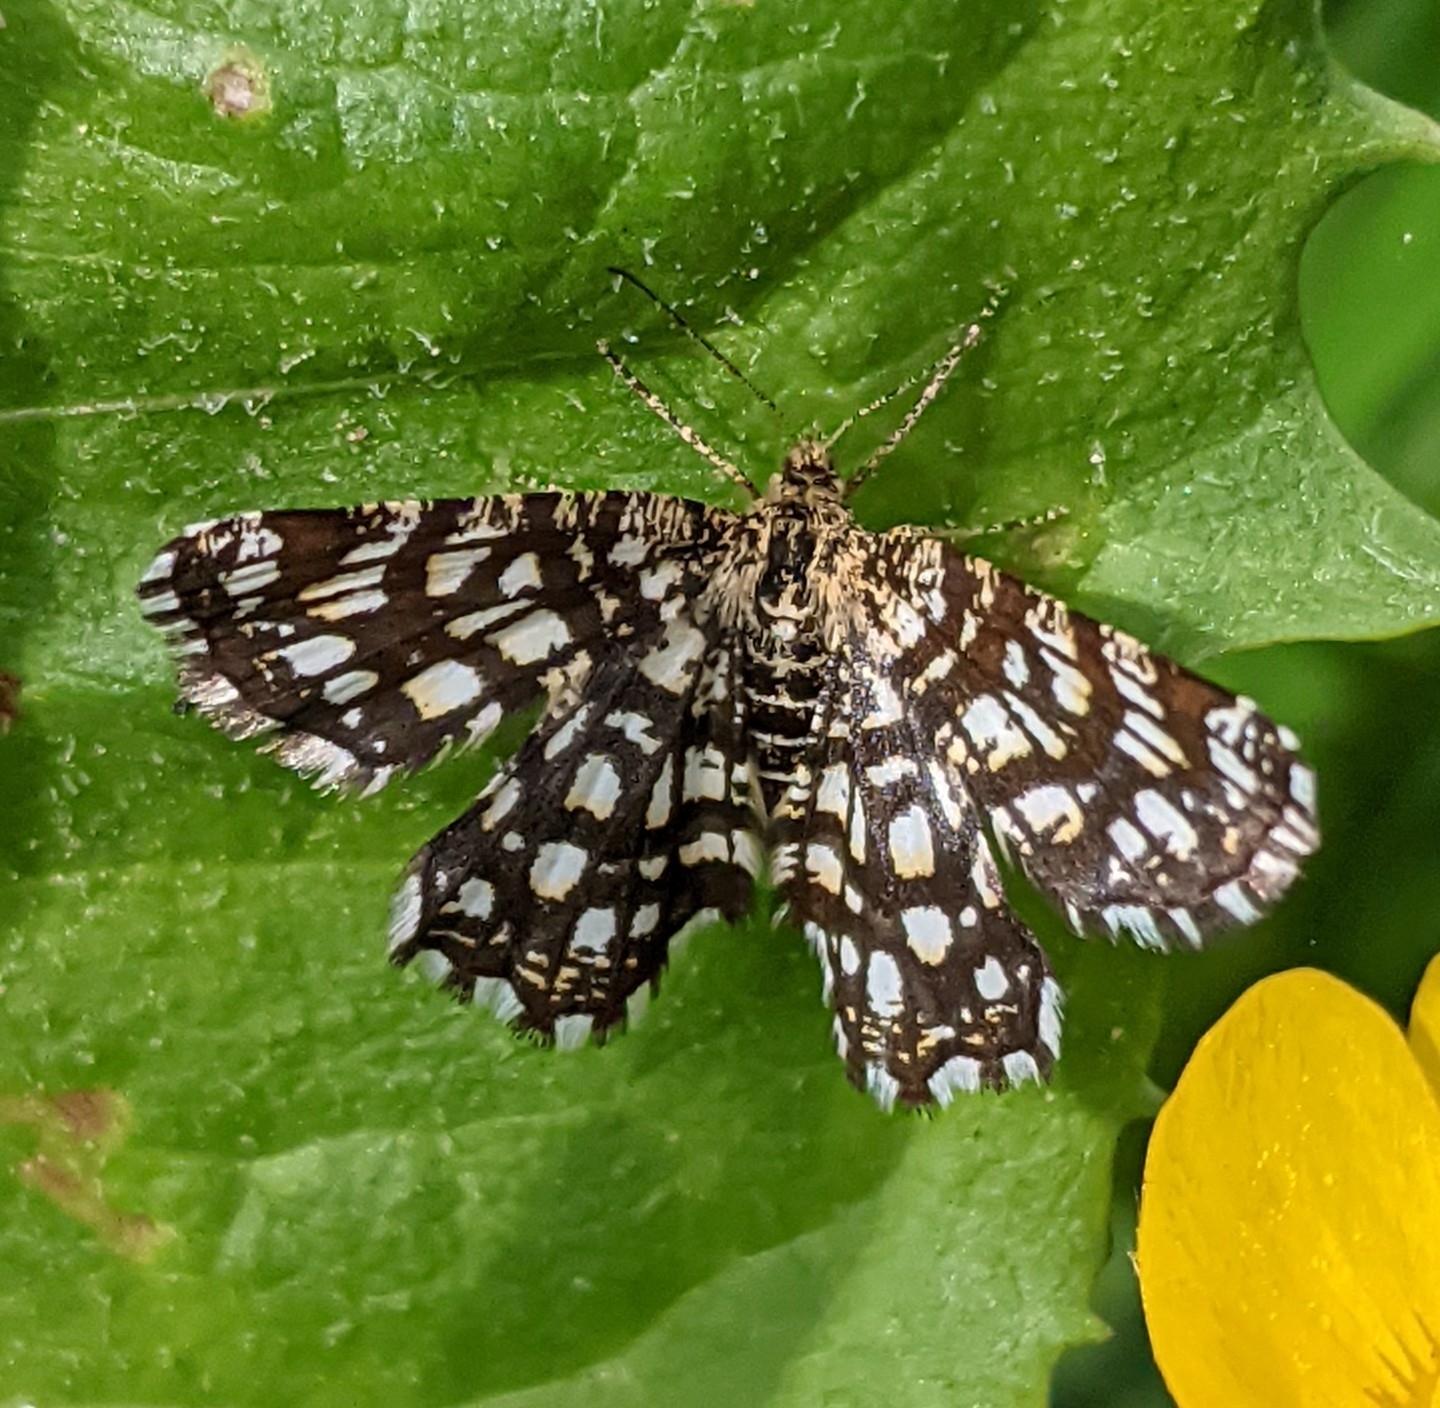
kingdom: Animalia
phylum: Arthropoda
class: Insecta
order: Lepidoptera
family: Geometridae
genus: Chiasmia
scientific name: Chiasmia clathrata
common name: Latticed heath
